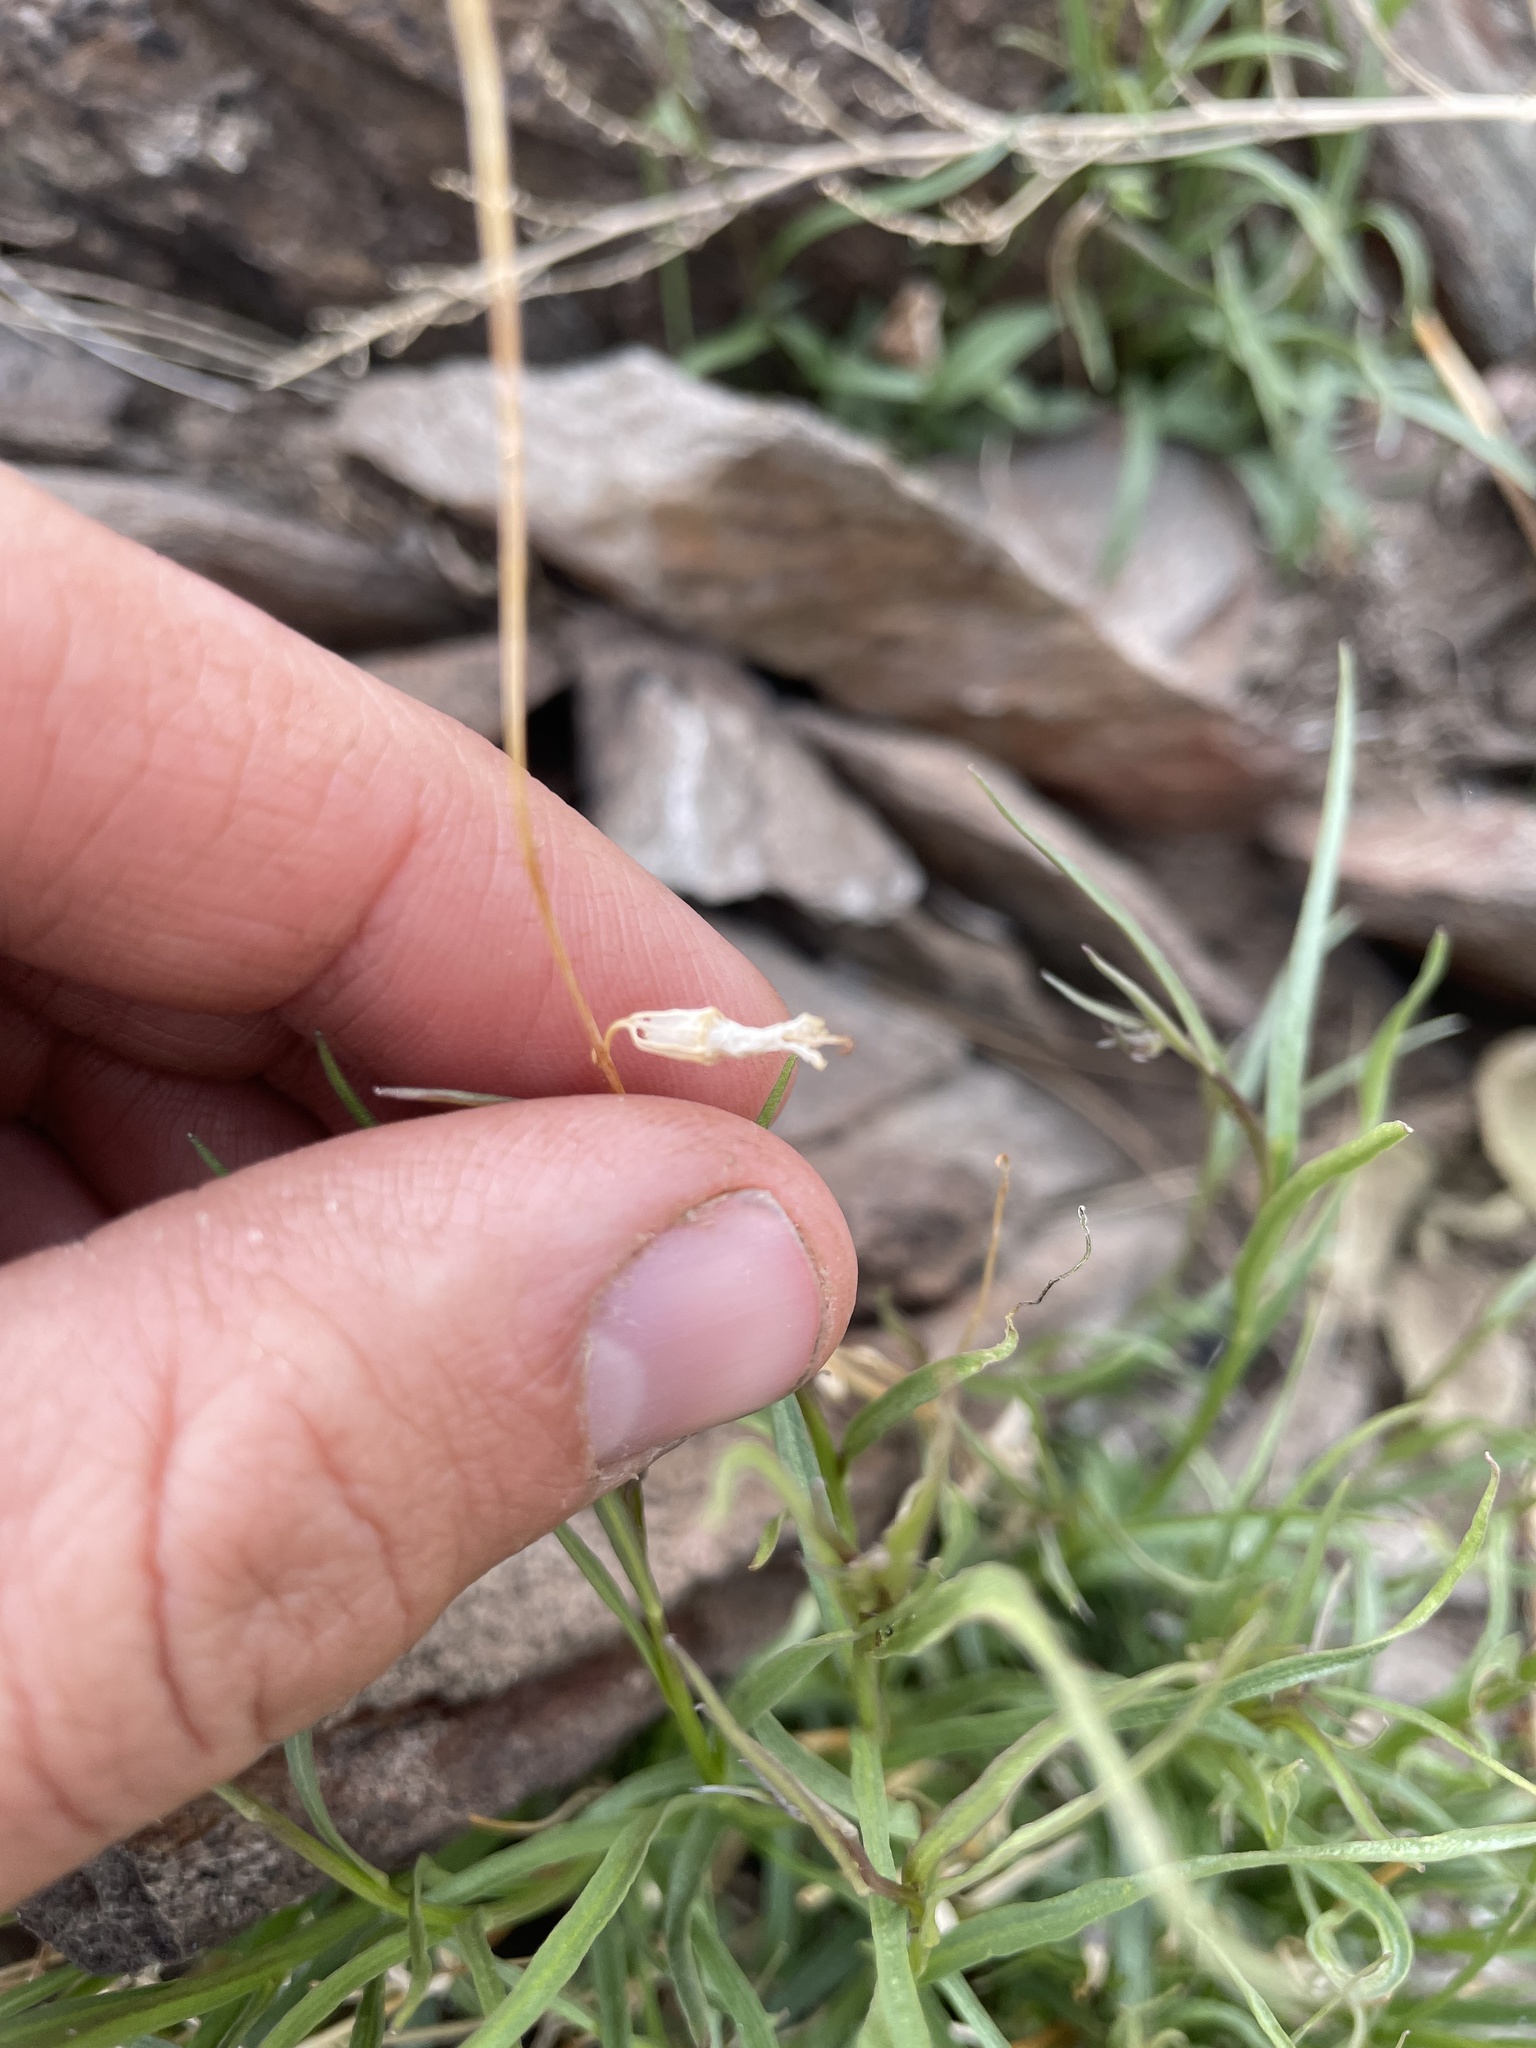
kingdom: Plantae
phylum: Tracheophyta
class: Magnoliopsida
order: Asterales
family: Campanulaceae
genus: Campanula
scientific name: Campanula petiolata
